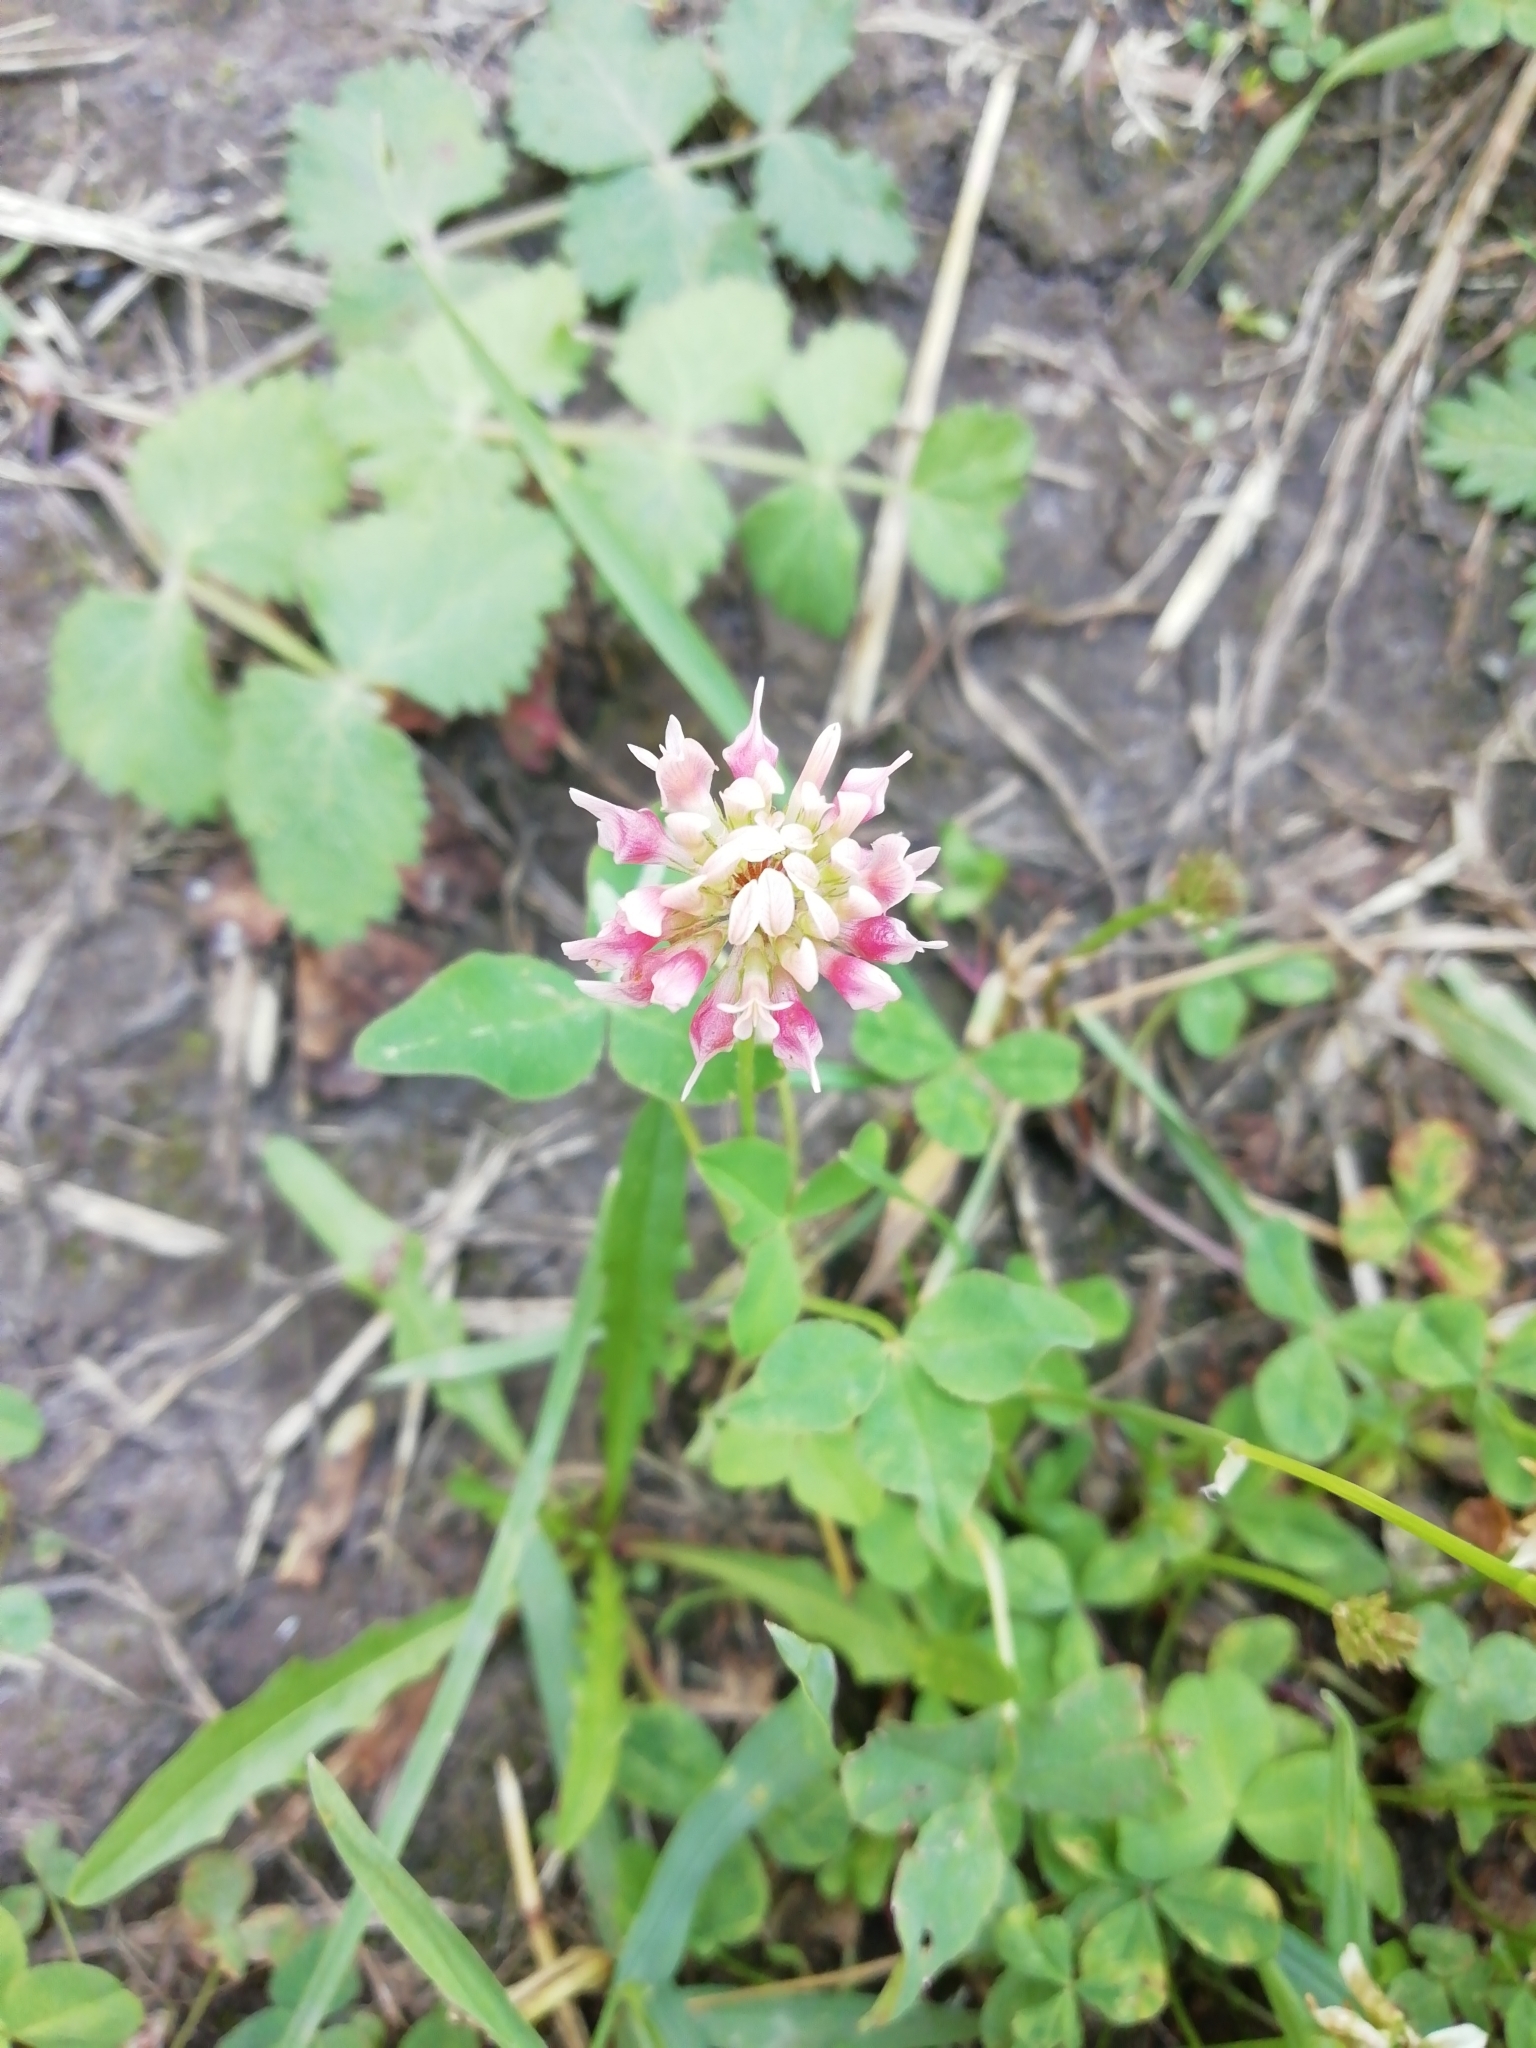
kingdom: Plantae
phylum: Tracheophyta
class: Magnoliopsida
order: Fabales
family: Fabaceae
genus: Trifolium
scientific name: Trifolium hybridum
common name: Alsike clover
